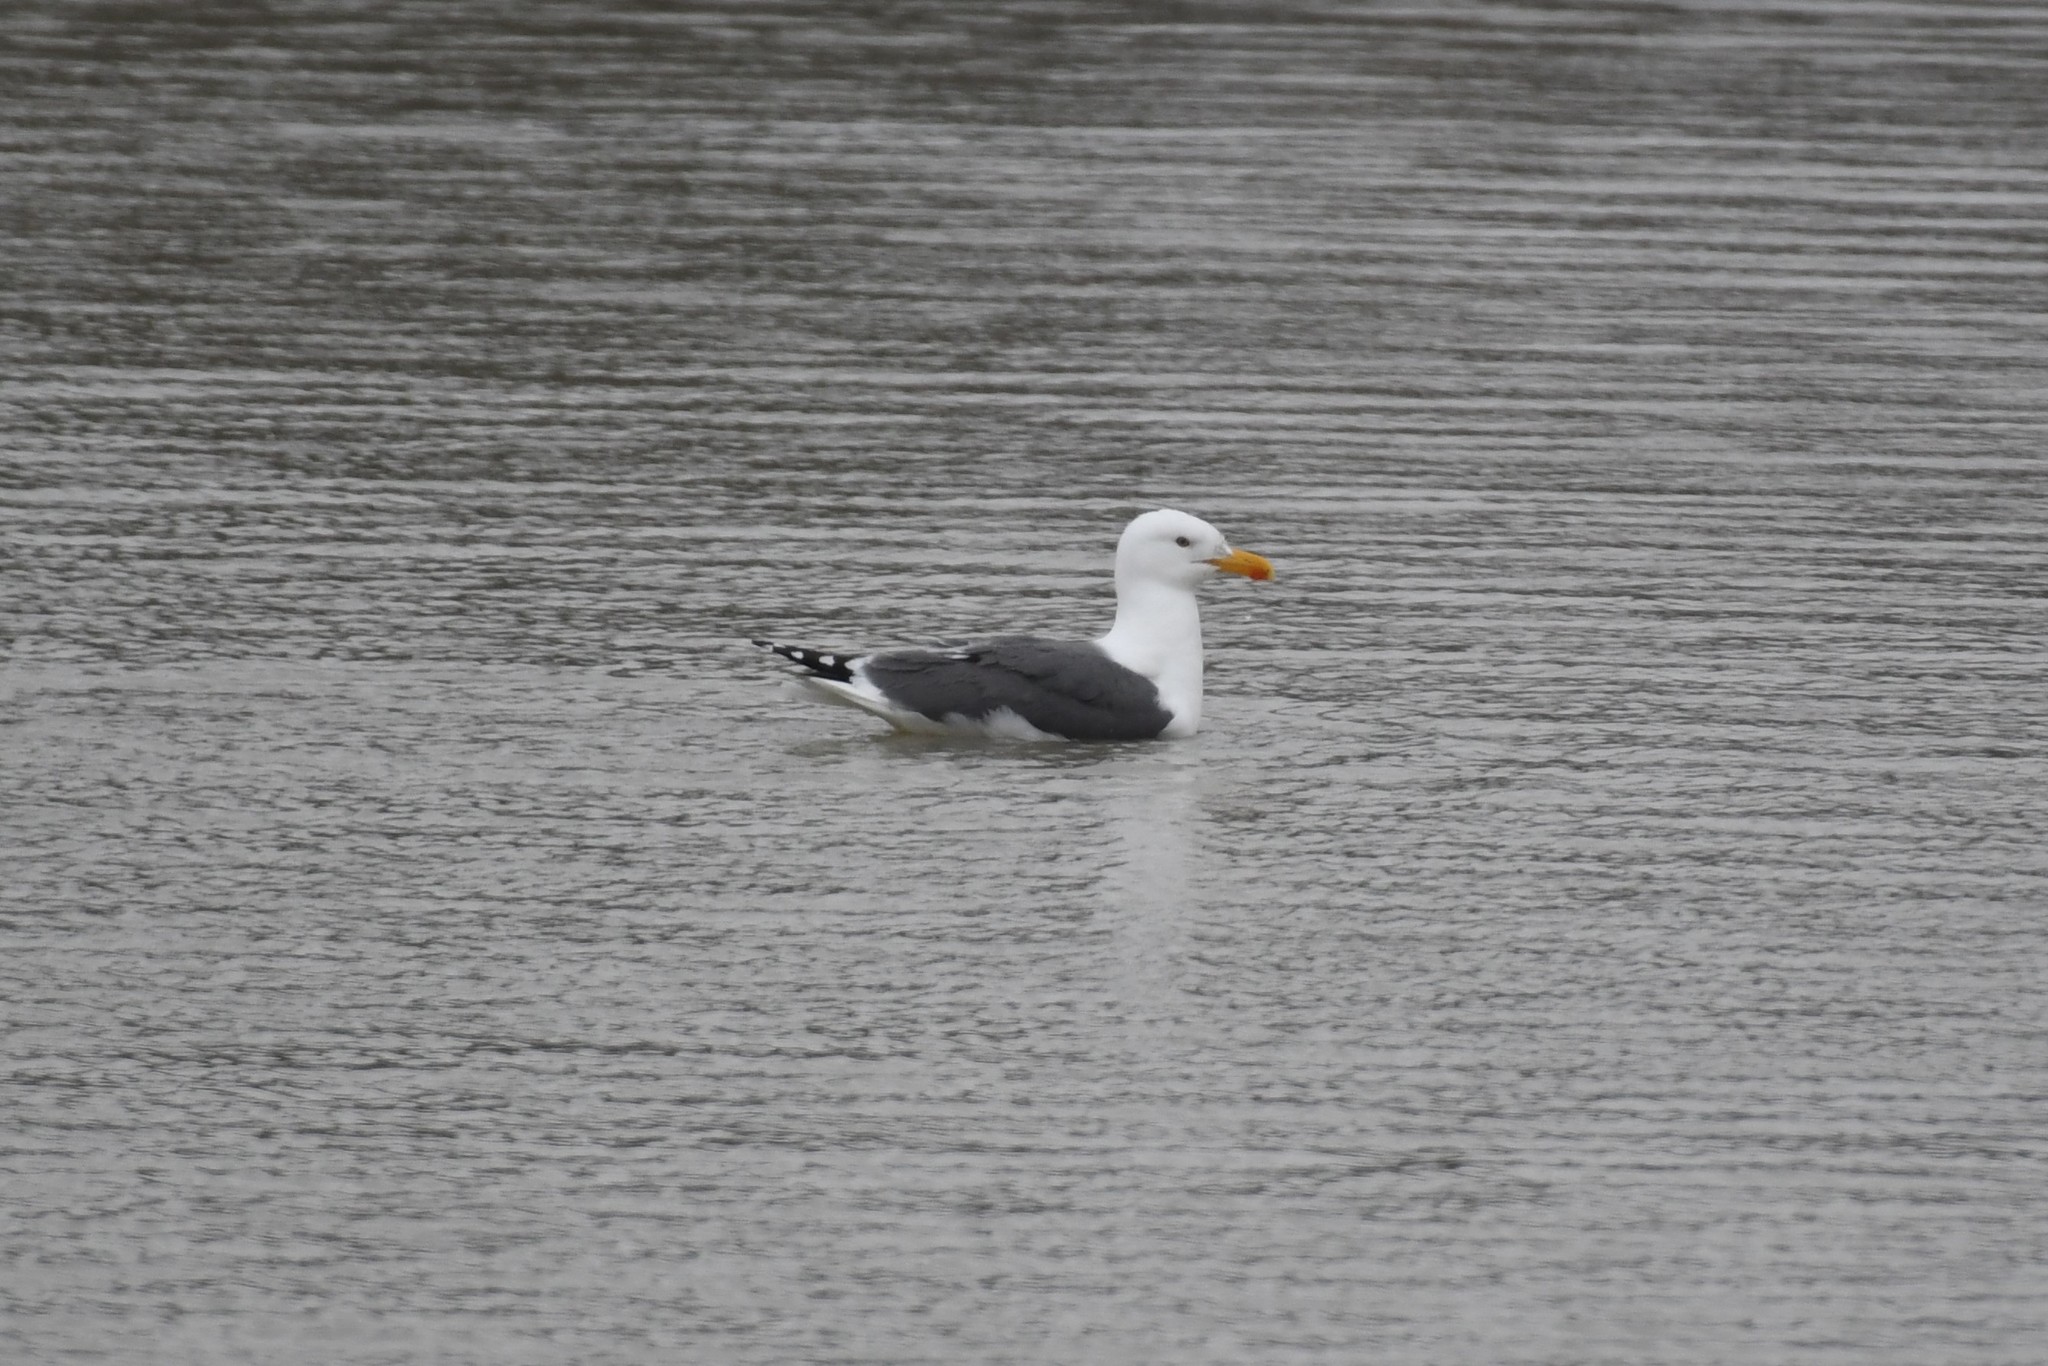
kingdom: Animalia
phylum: Chordata
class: Aves
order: Charadriiformes
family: Laridae
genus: Larus
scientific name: Larus
